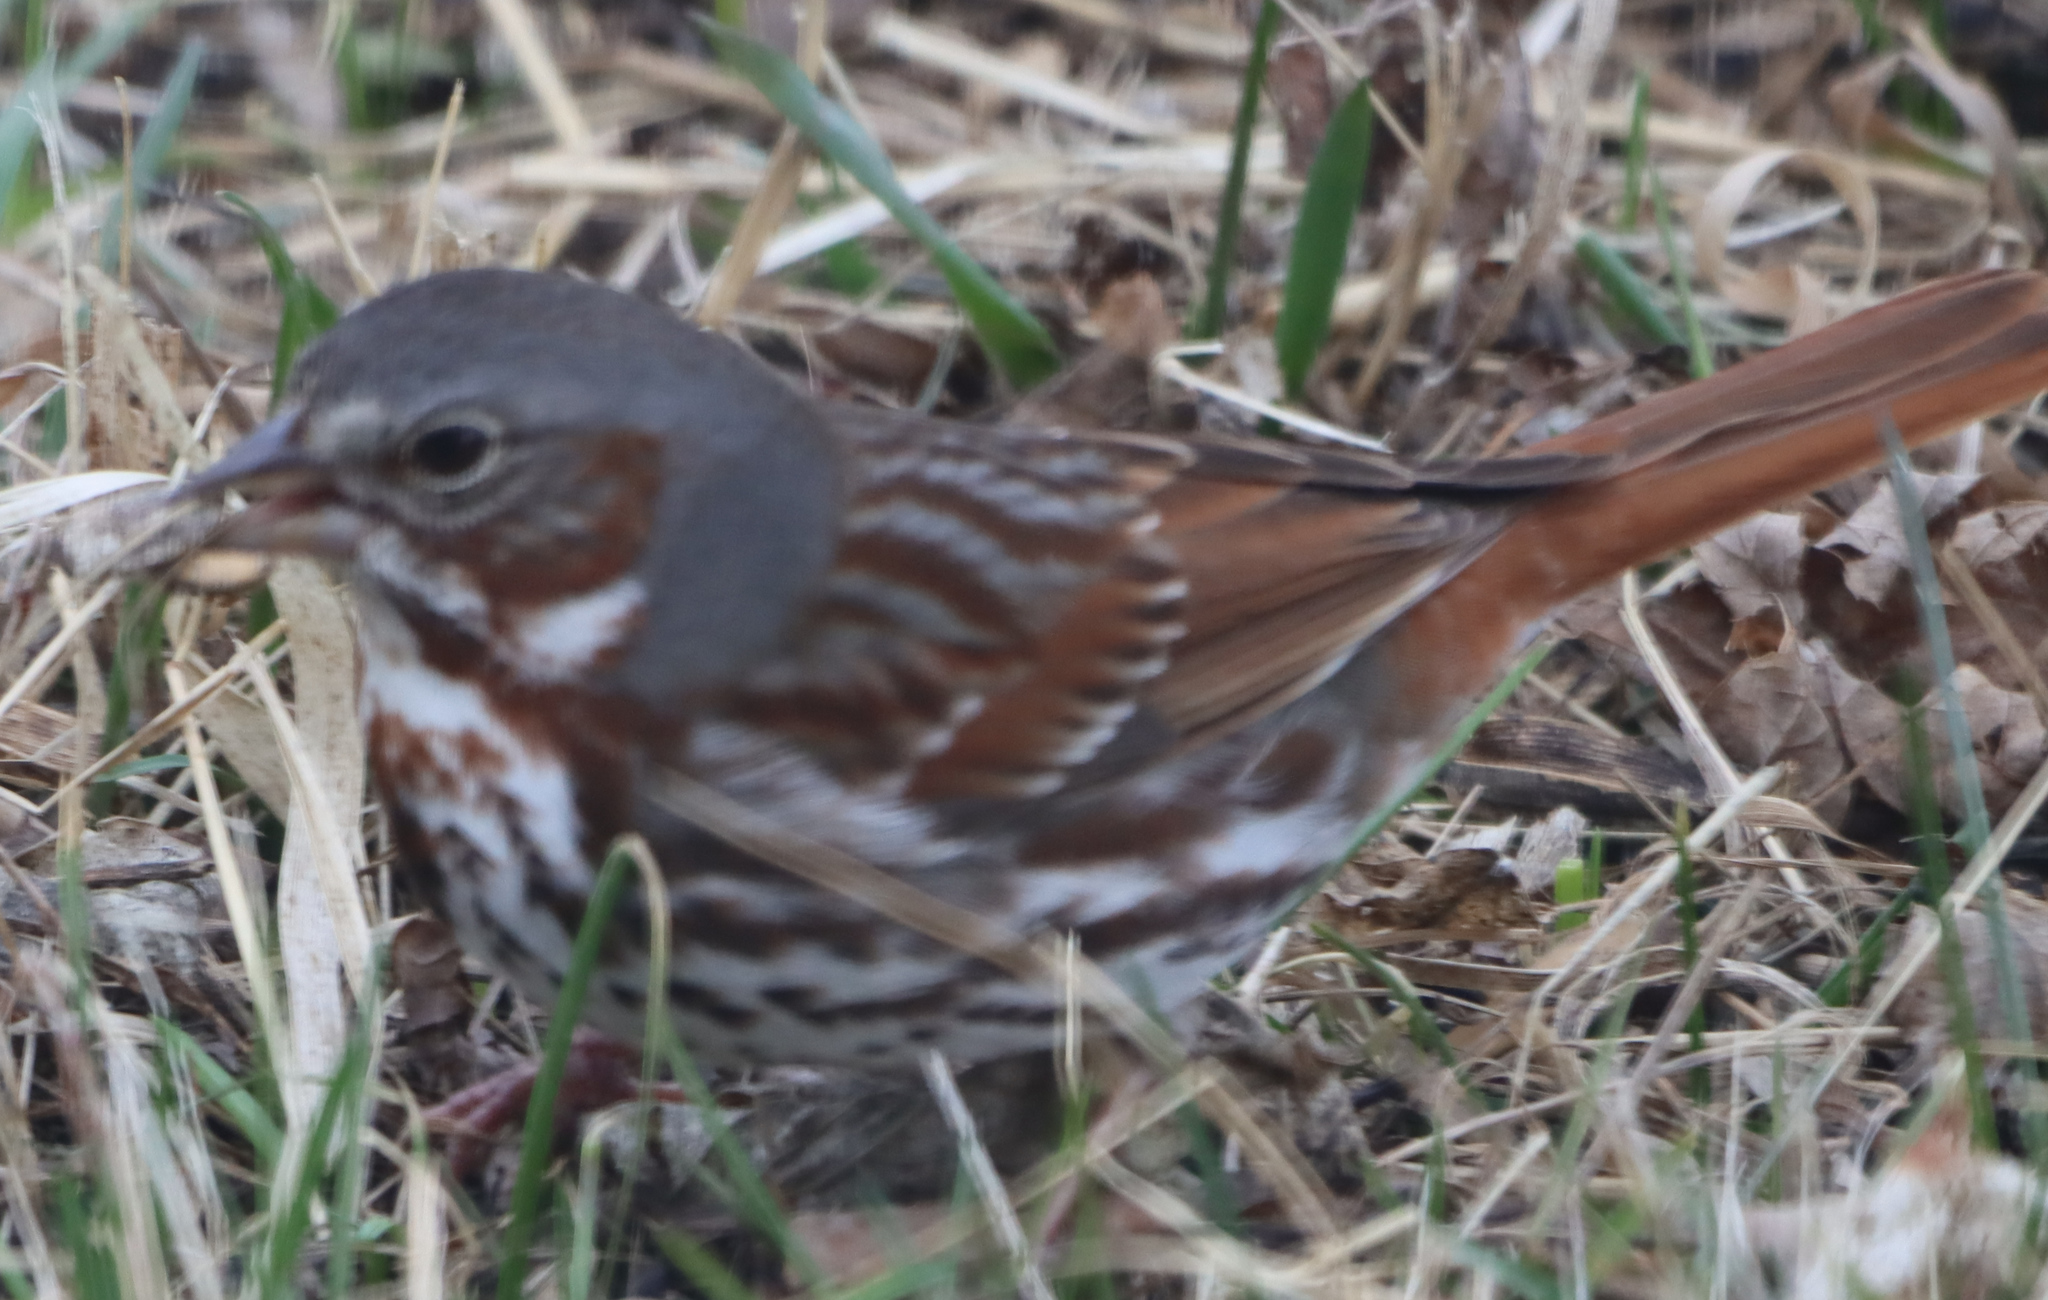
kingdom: Animalia
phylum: Chordata
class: Aves
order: Passeriformes
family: Passerellidae
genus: Passerella
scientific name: Passerella iliaca
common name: Fox sparrow
